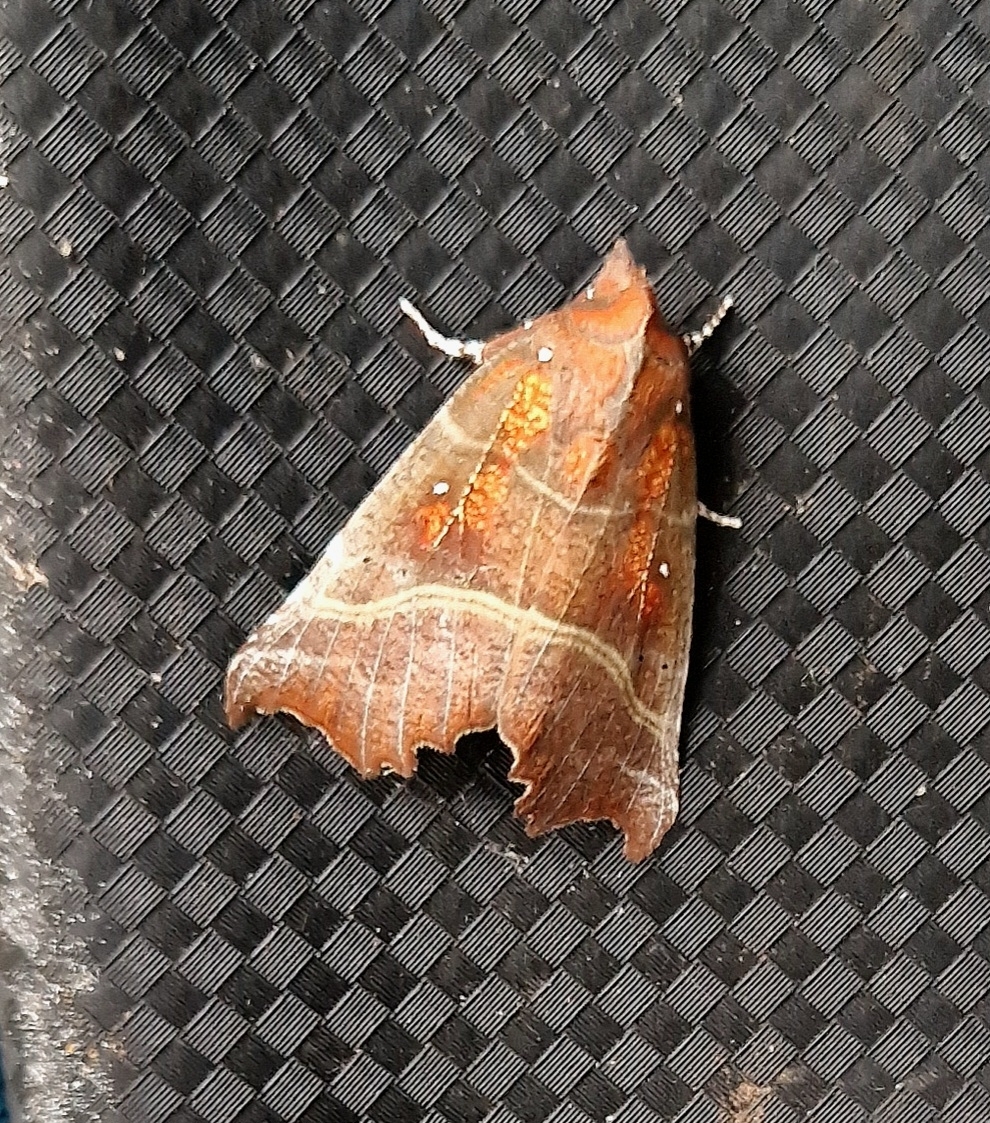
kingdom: Animalia
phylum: Arthropoda
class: Insecta
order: Lepidoptera
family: Erebidae
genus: Scoliopteryx
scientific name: Scoliopteryx libatrix
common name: Herald
